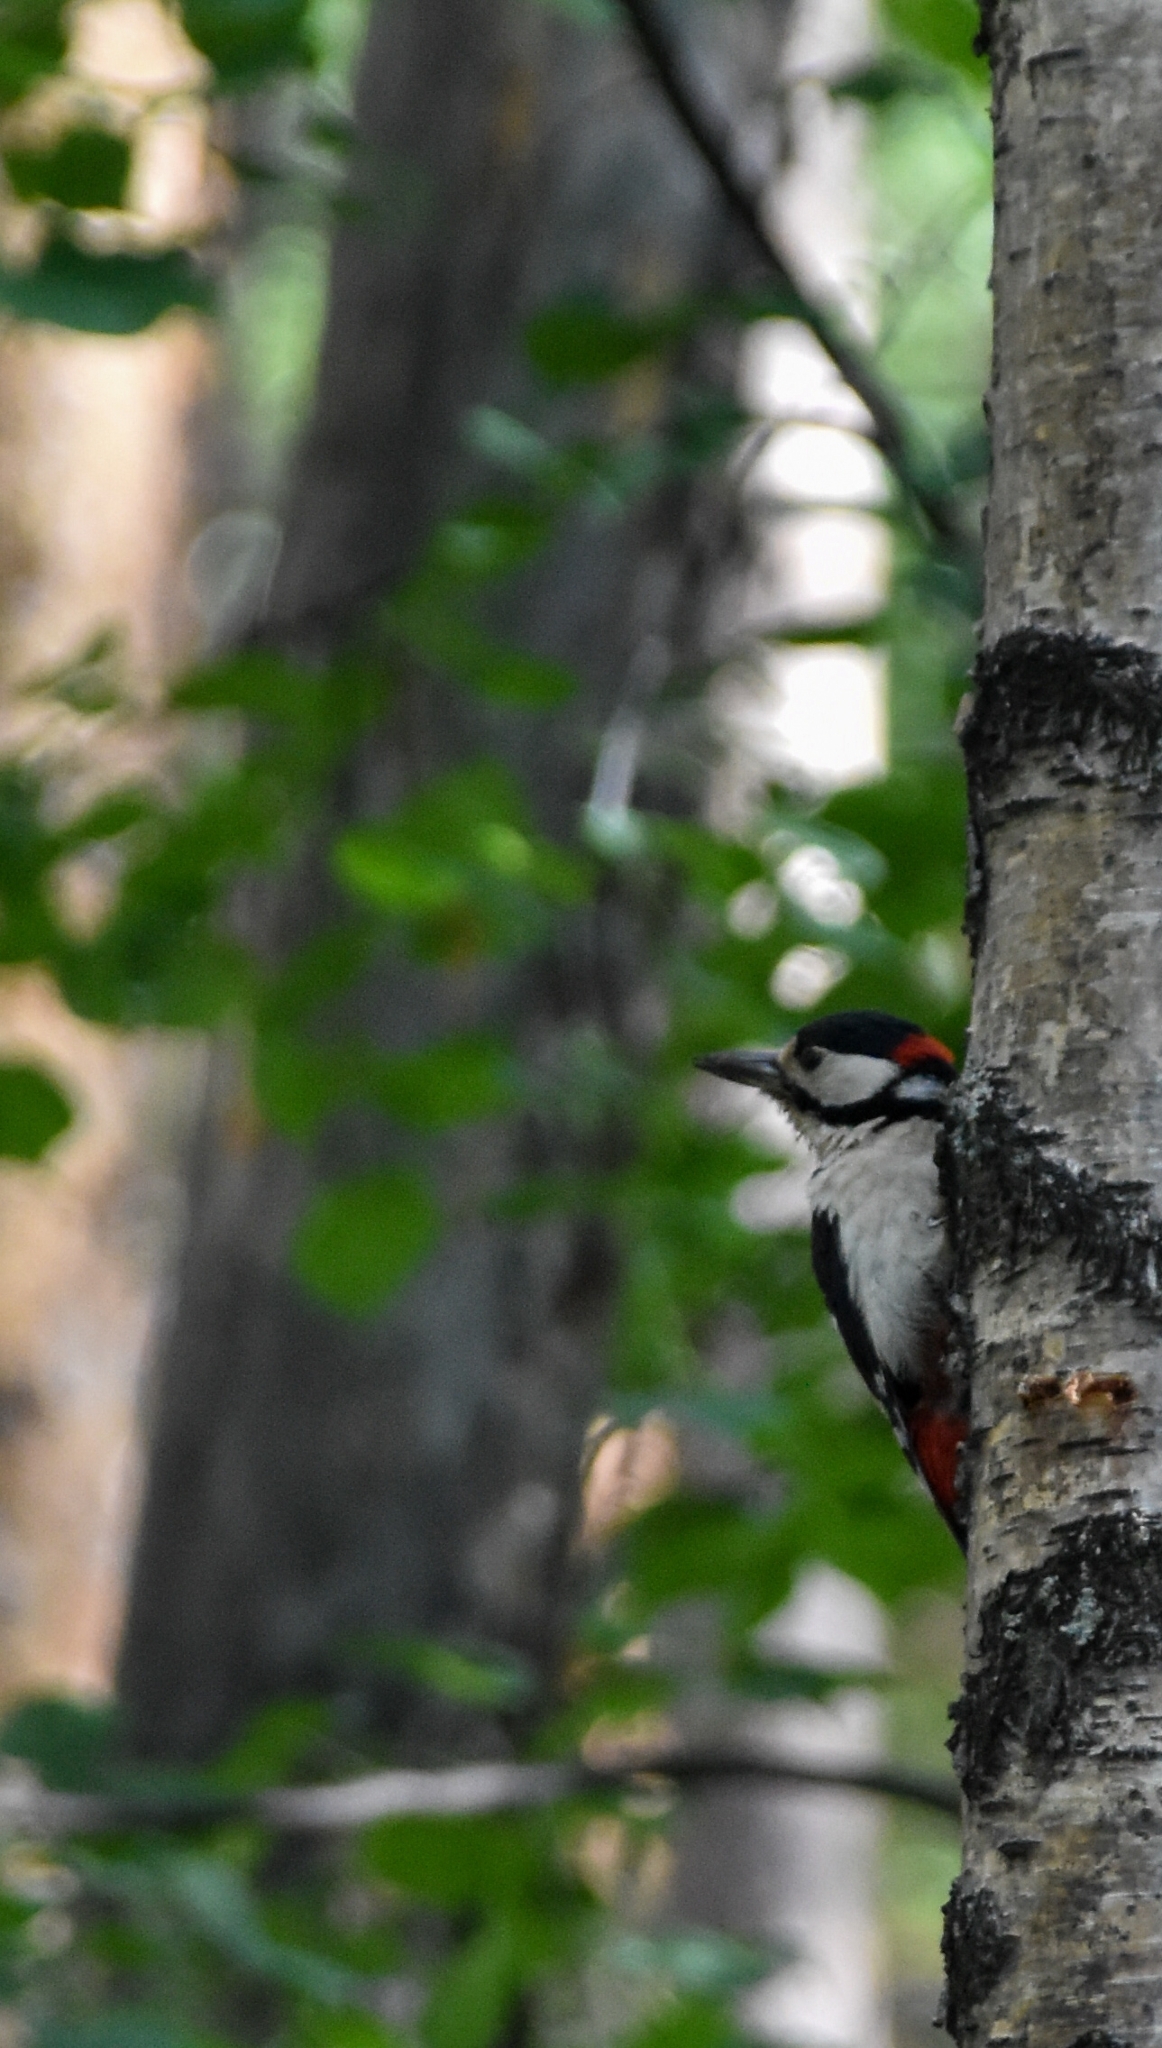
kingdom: Animalia
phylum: Chordata
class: Aves
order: Piciformes
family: Picidae
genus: Dendrocopos
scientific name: Dendrocopos major
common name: Great spotted woodpecker
